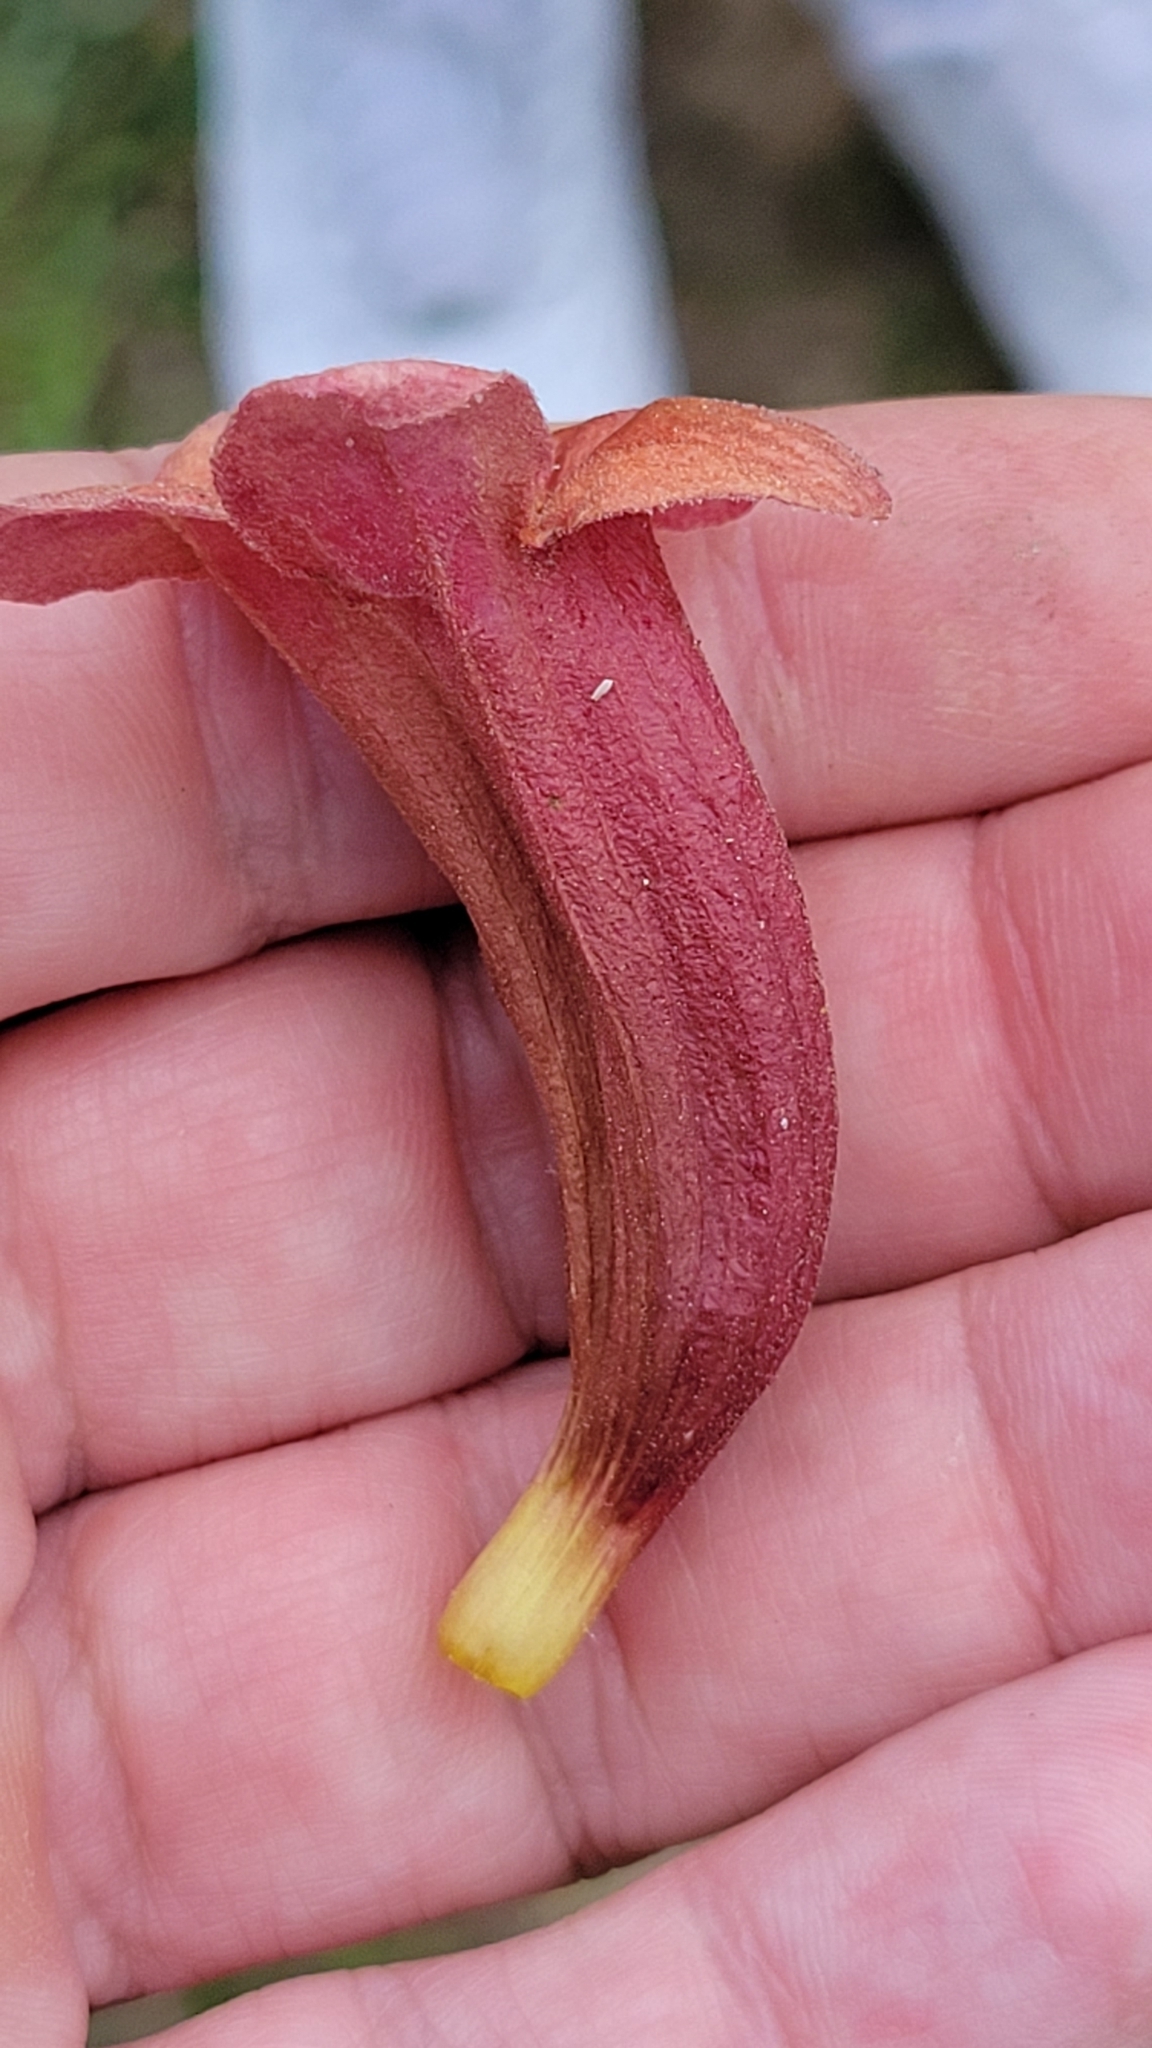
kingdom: Plantae
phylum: Tracheophyta
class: Magnoliopsida
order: Lamiales
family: Bignoniaceae
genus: Bignonia
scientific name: Bignonia capreolata
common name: Crossvine
